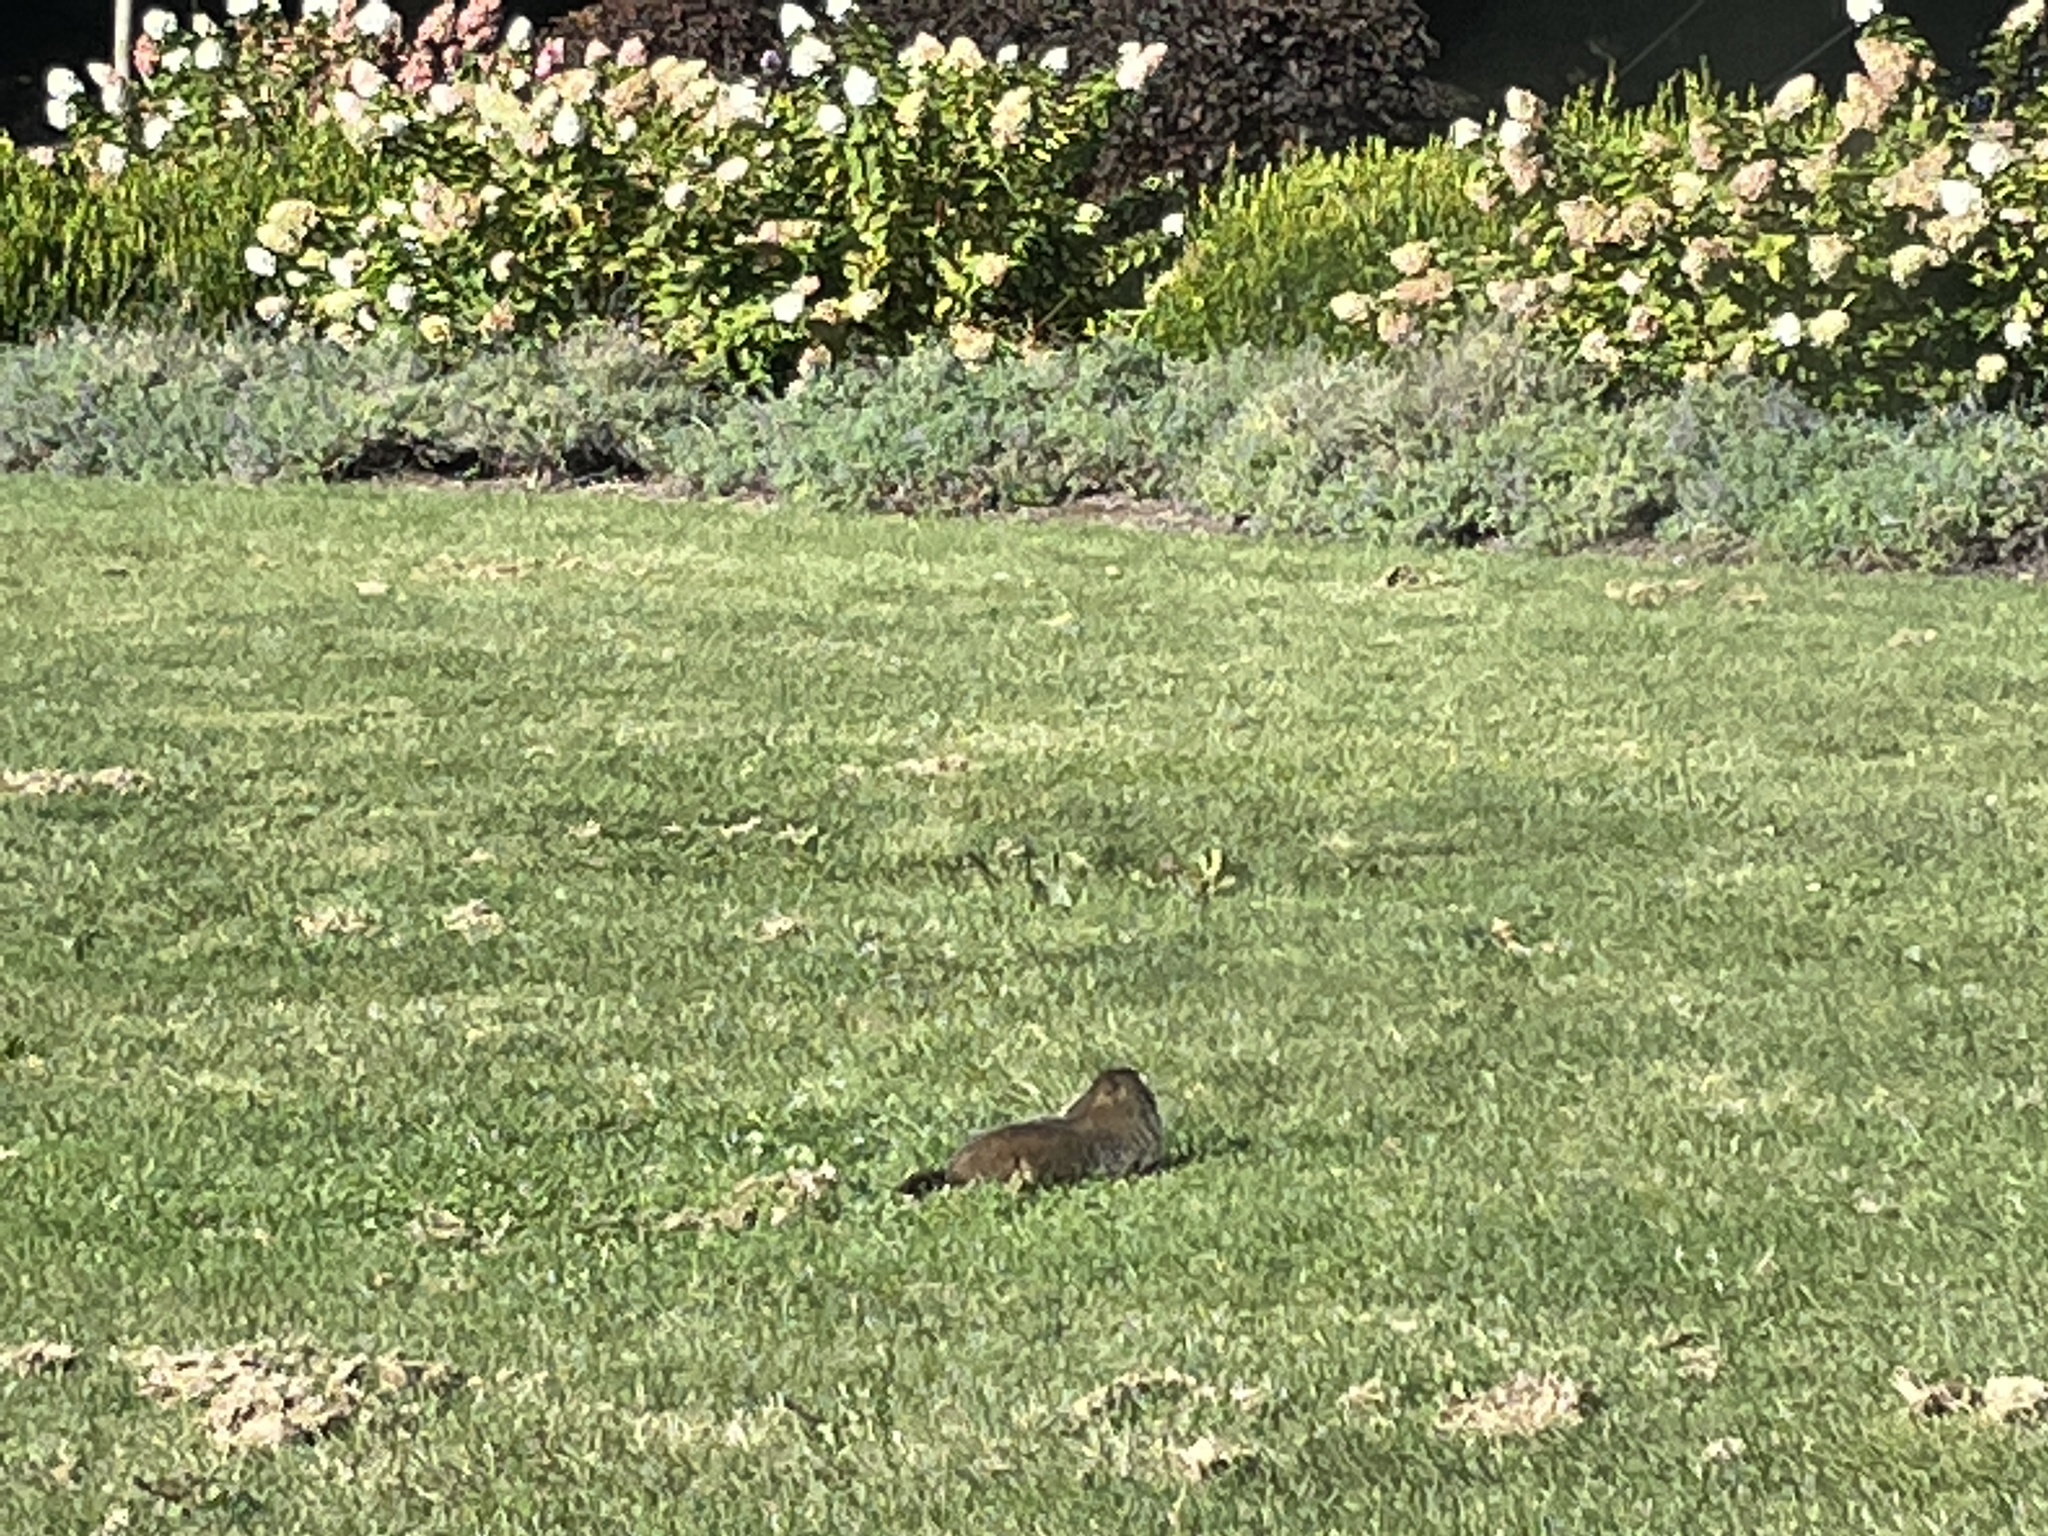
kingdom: Animalia
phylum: Chordata
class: Mammalia
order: Rodentia
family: Sciuridae
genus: Marmota
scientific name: Marmota monax
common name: Groundhog
